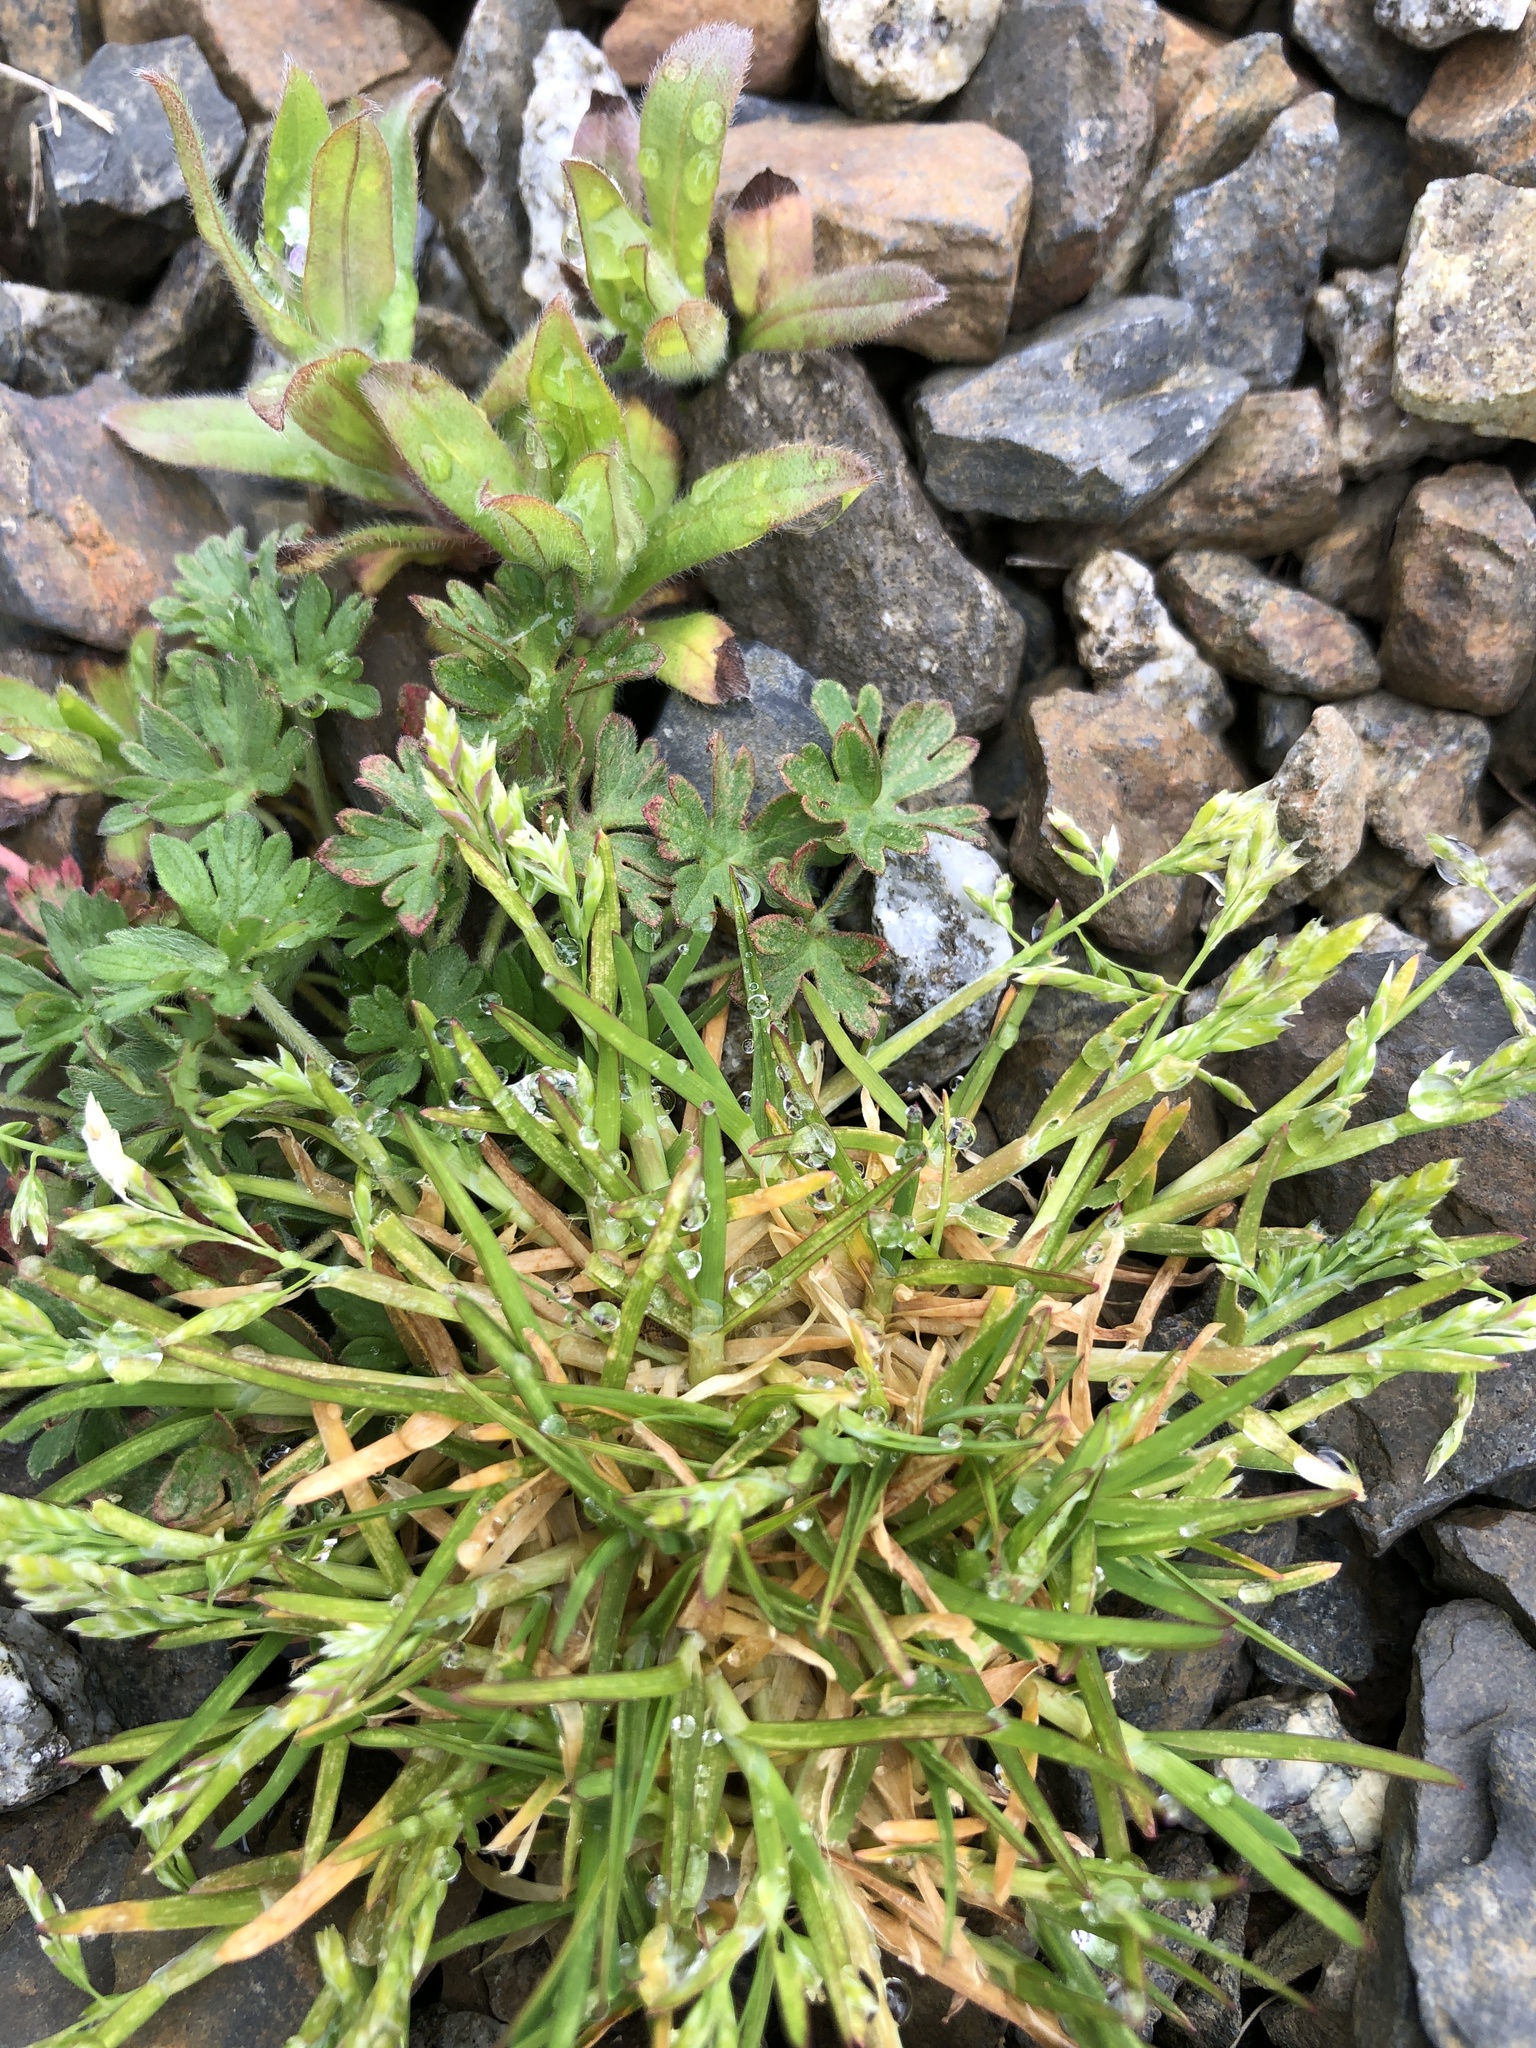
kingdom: Plantae
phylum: Tracheophyta
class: Liliopsida
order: Poales
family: Poaceae
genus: Poa
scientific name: Poa annua
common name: Annual bluegrass
